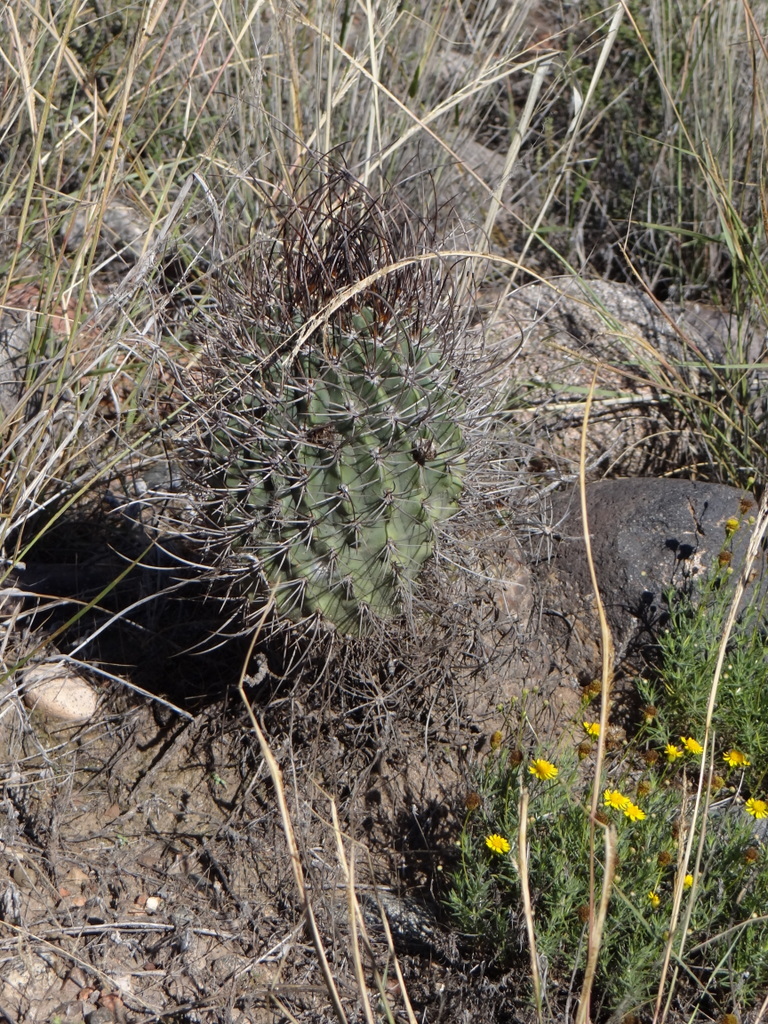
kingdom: Plantae
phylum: Tracheophyta
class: Magnoliopsida
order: Caryophyllales
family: Cactaceae
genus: Acanthocalycium
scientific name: Acanthocalycium leucanthum
